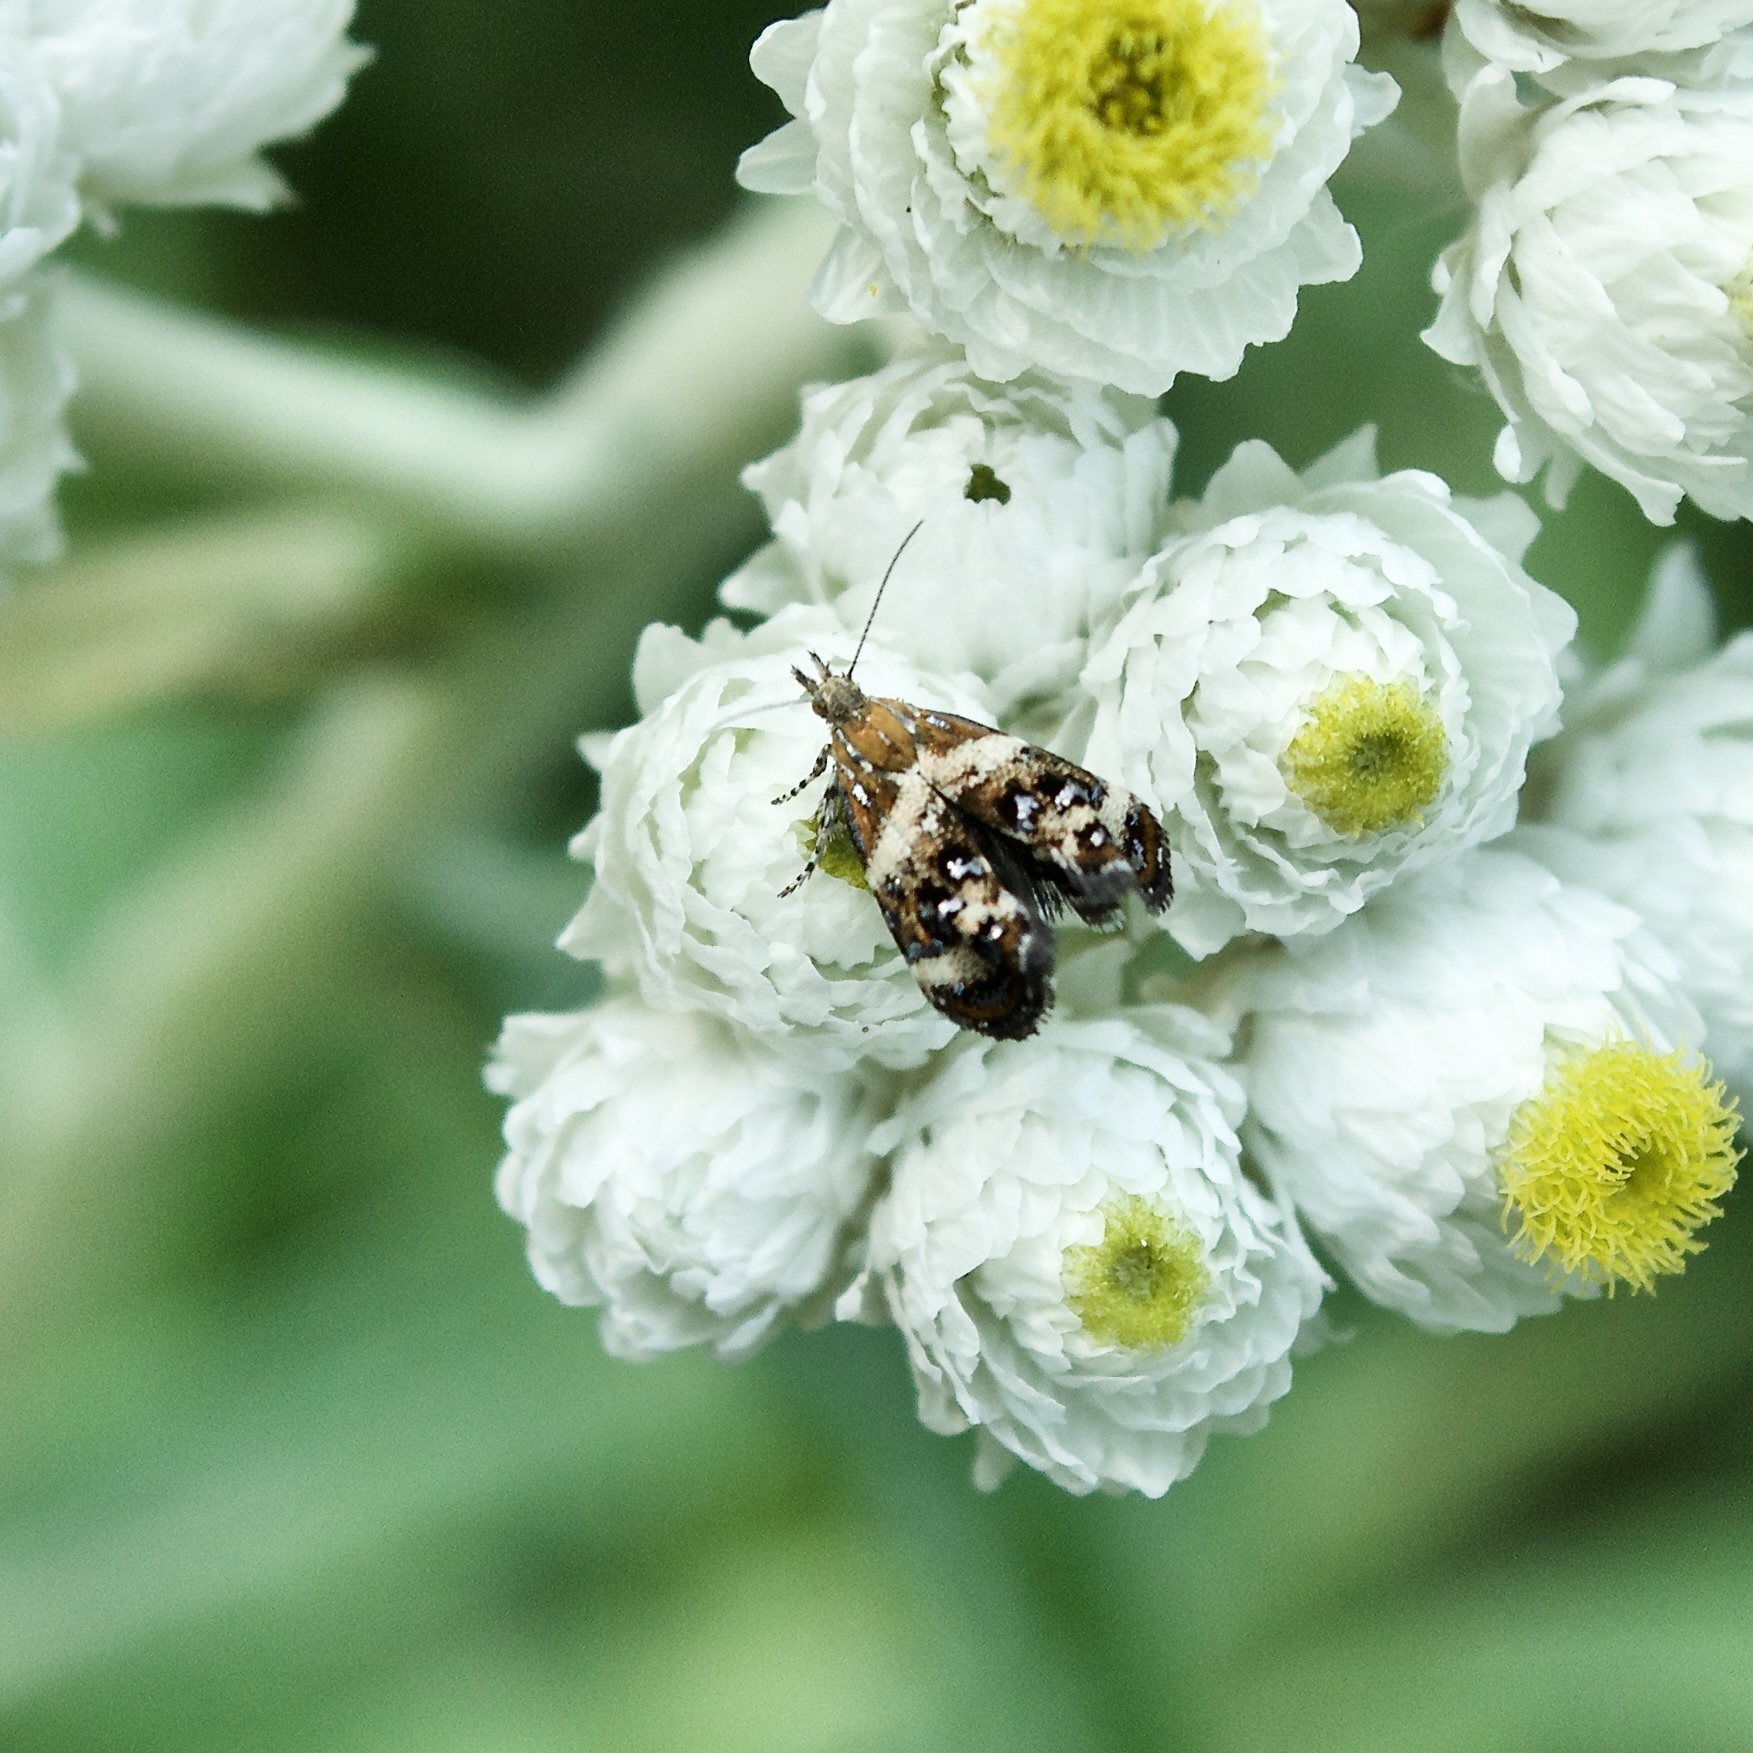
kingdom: Animalia
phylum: Arthropoda
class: Insecta
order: Lepidoptera
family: Choreutidae
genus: Tebenna
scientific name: Tebenna onustana
